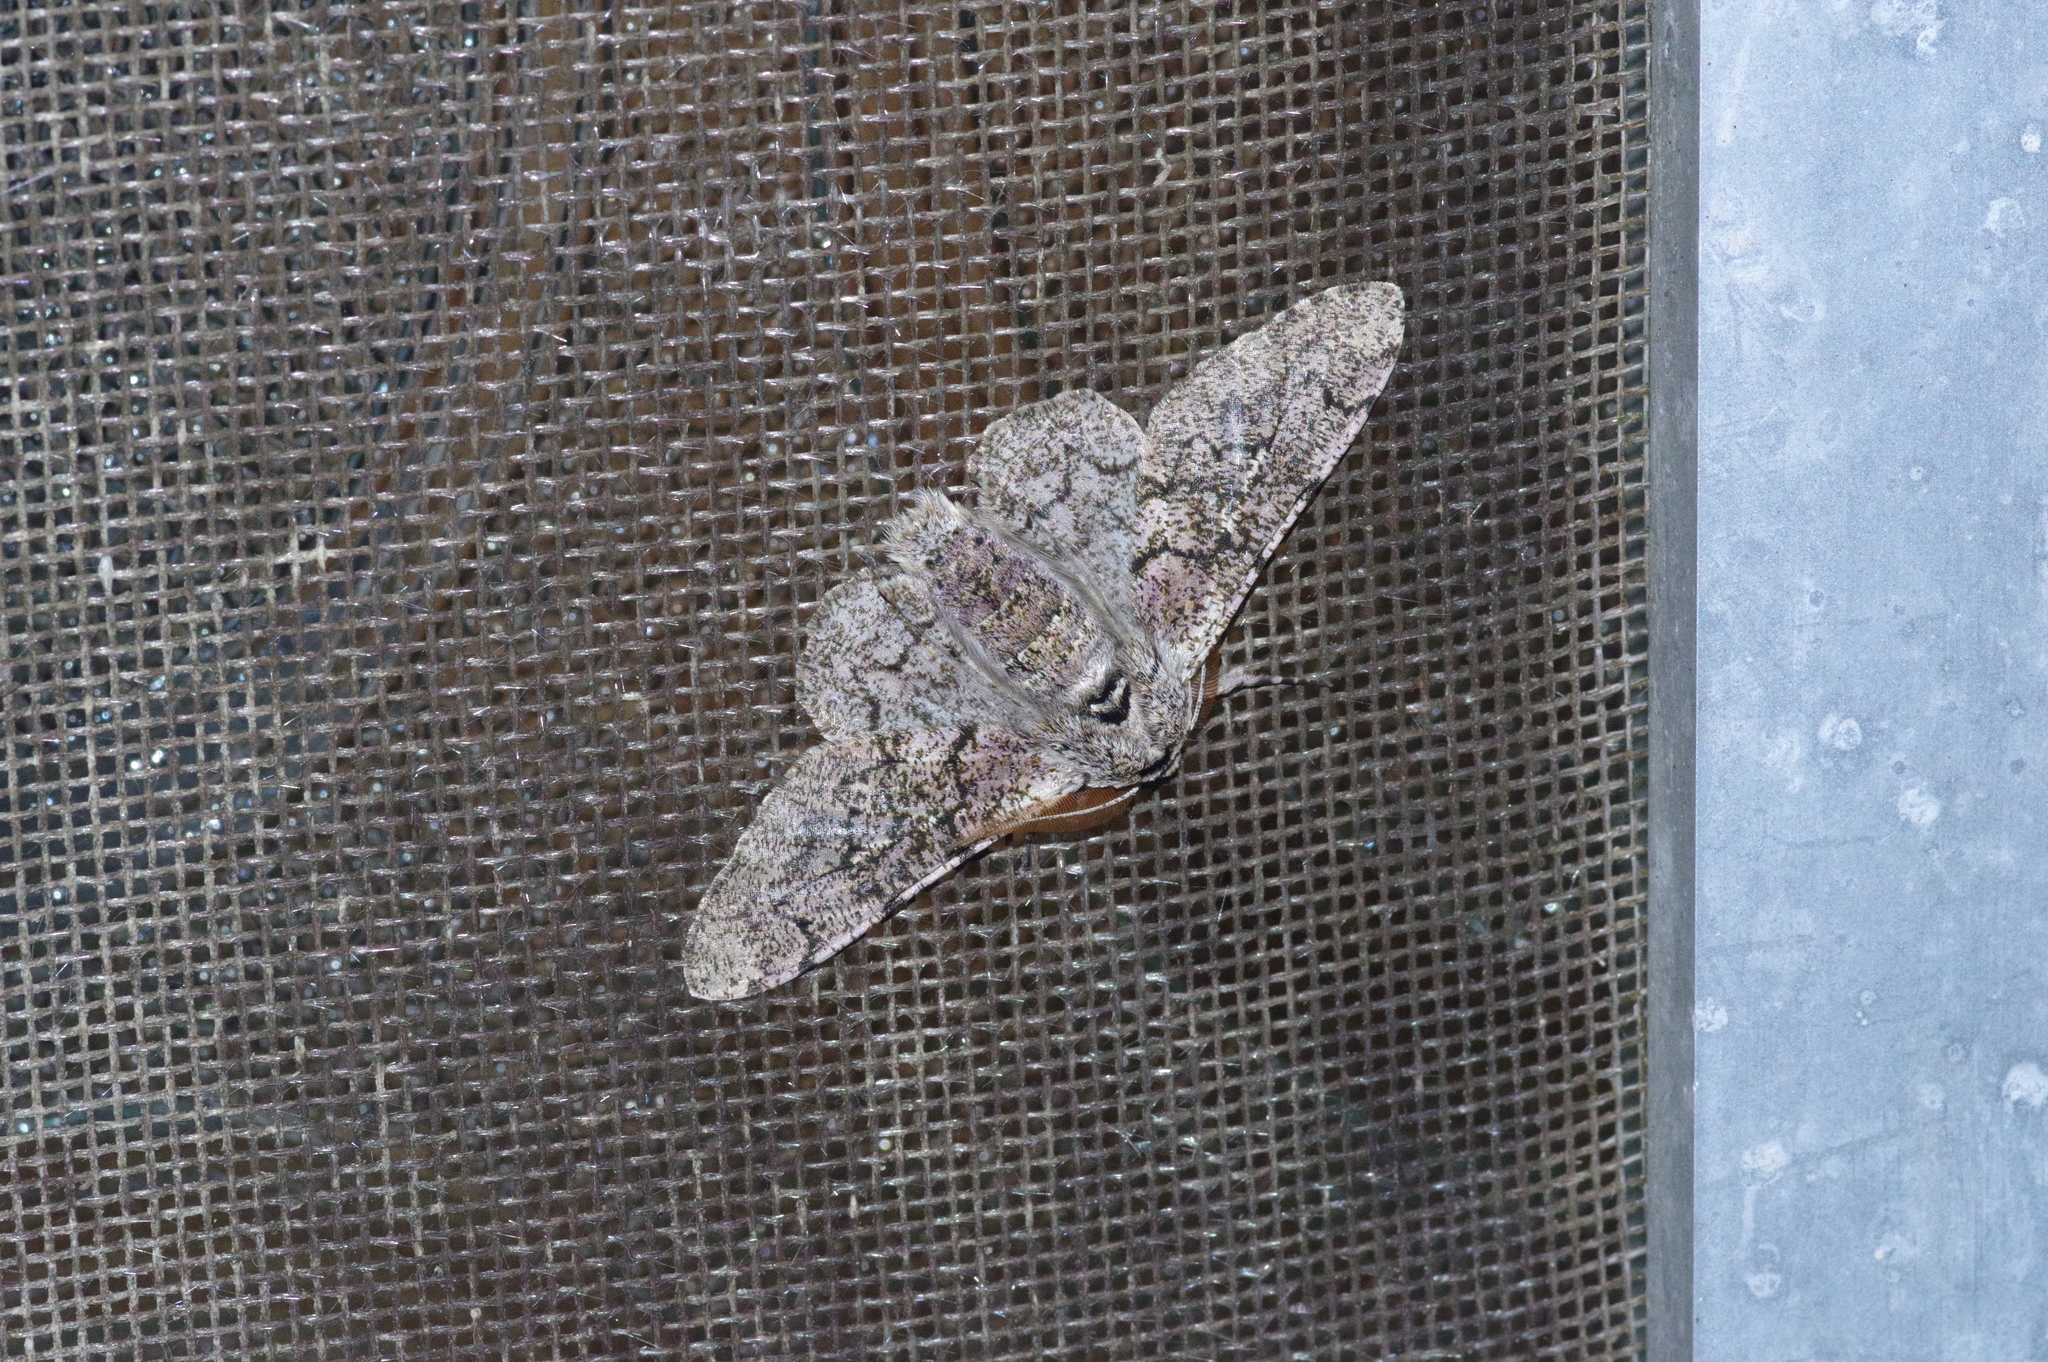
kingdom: Animalia
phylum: Arthropoda
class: Insecta
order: Lepidoptera
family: Geometridae
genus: Biston
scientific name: Biston robustum
